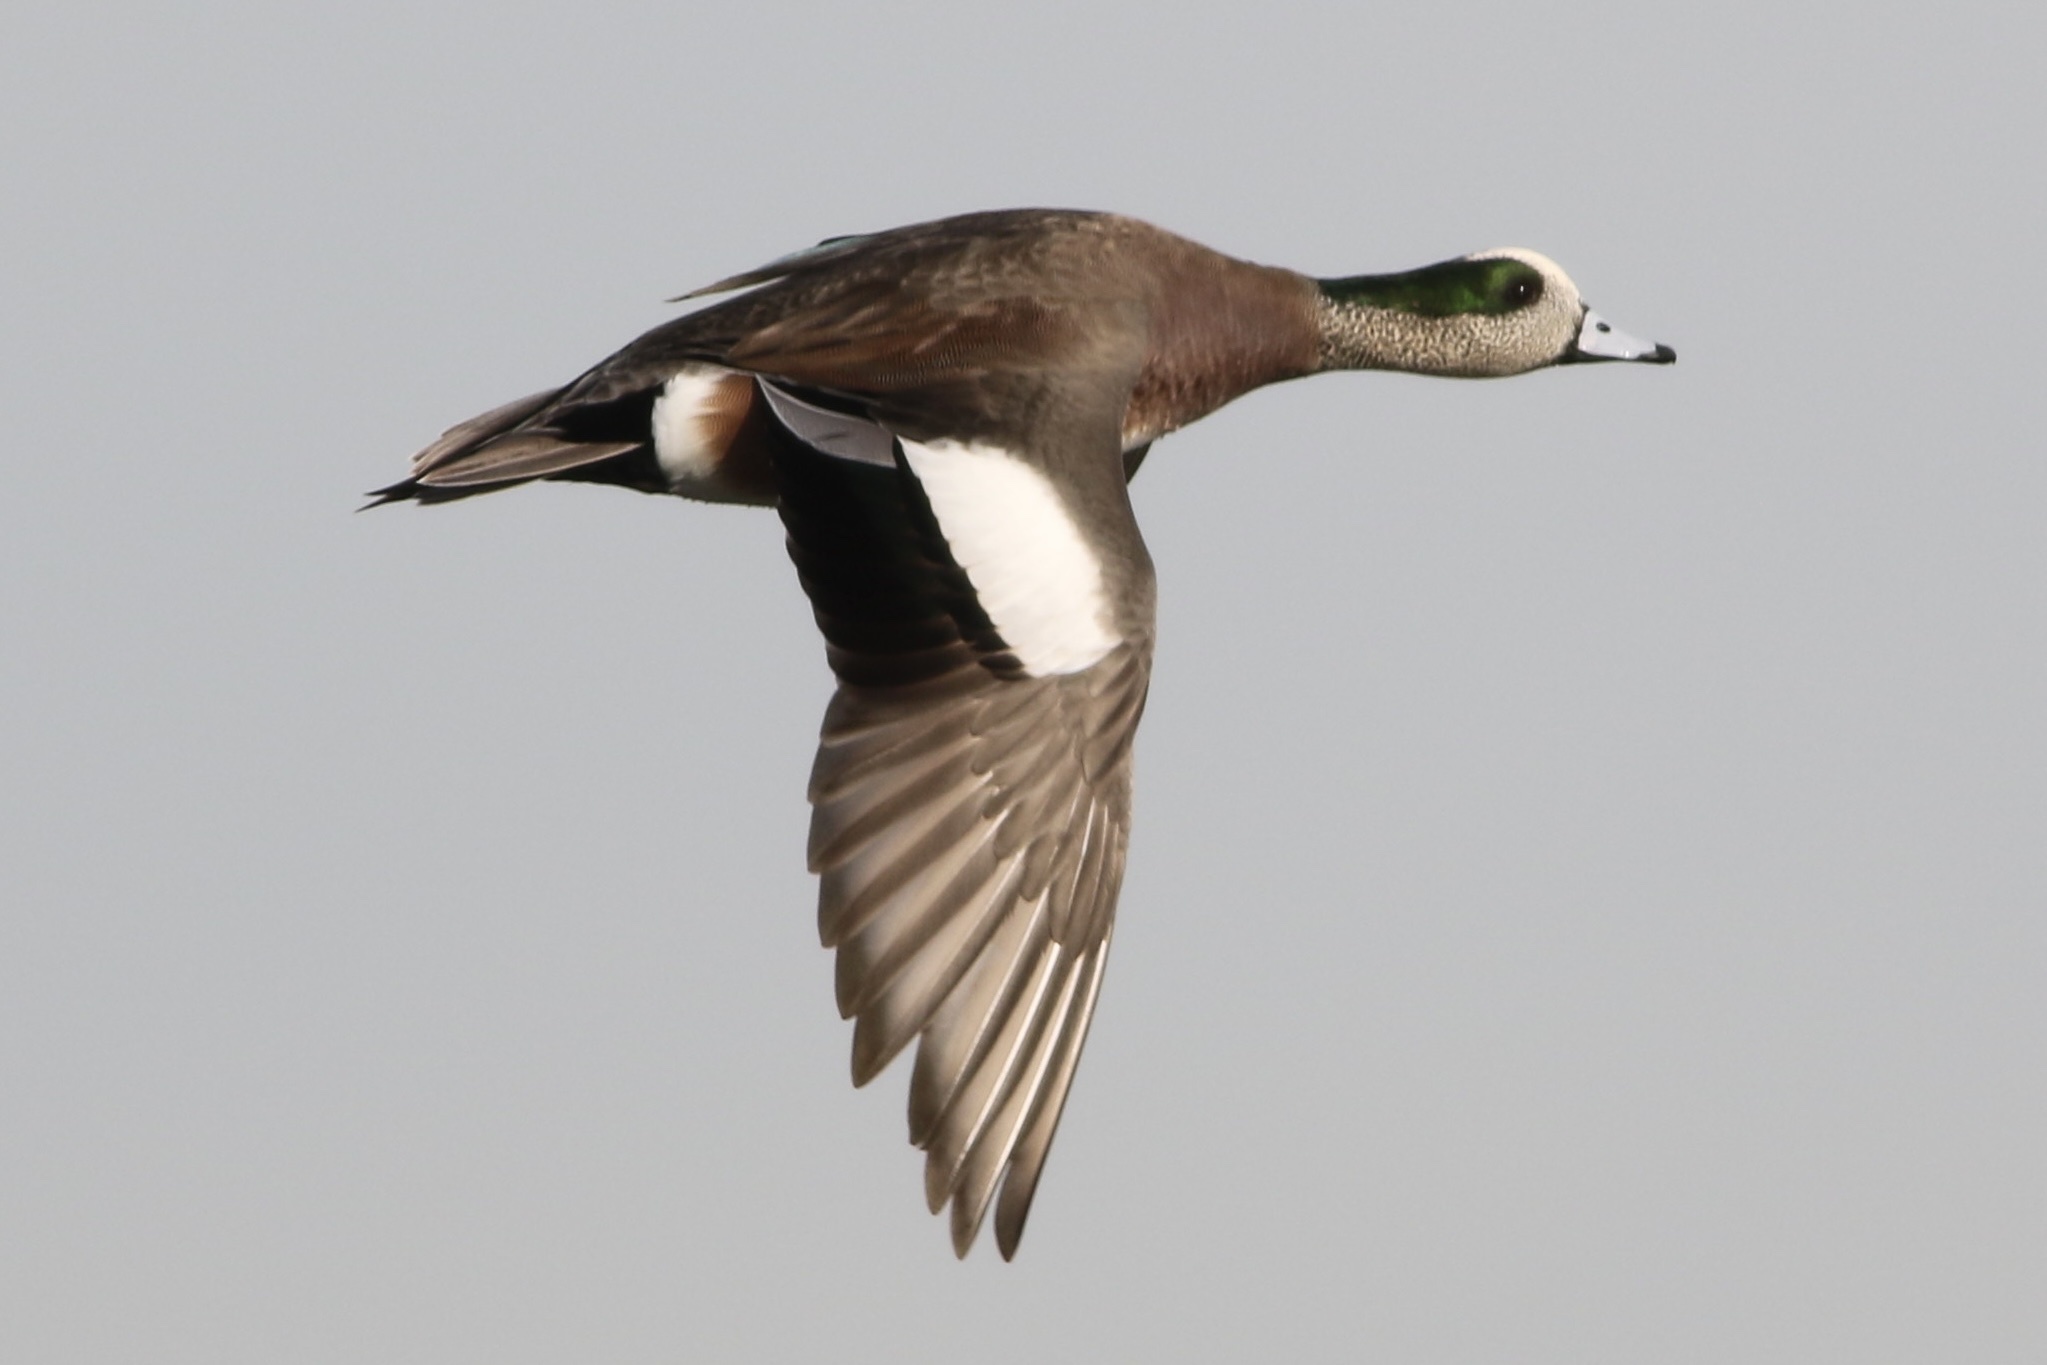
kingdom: Animalia
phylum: Chordata
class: Aves
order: Anseriformes
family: Anatidae
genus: Mareca
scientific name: Mareca americana
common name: American wigeon
